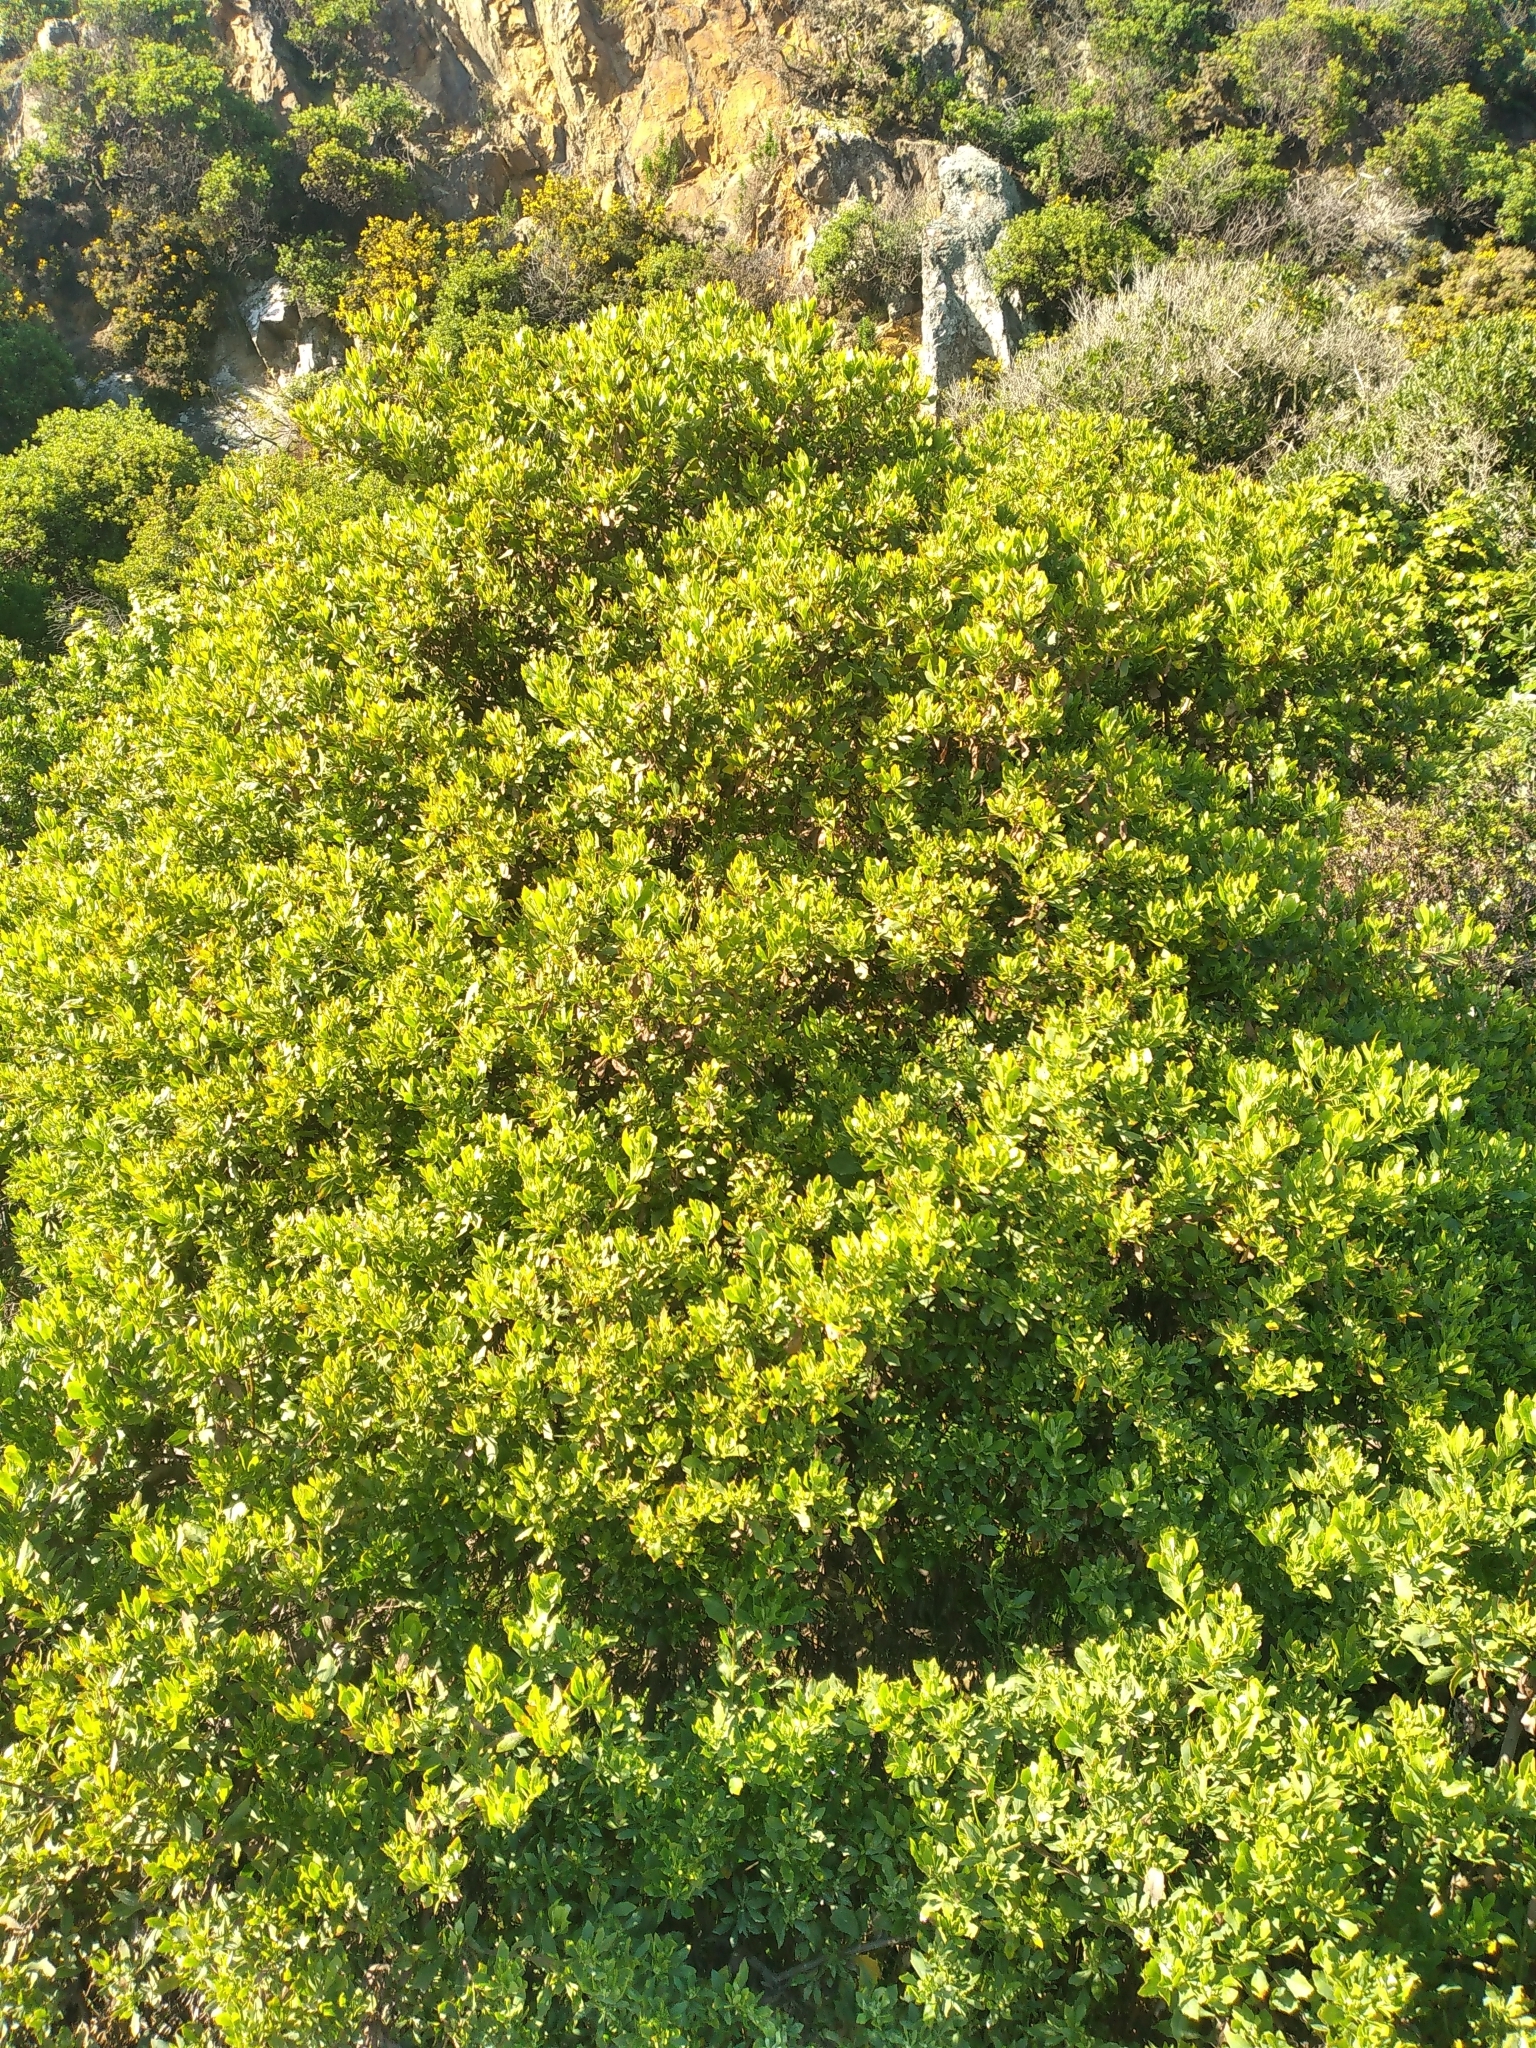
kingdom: Plantae
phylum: Tracheophyta
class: Magnoliopsida
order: Asterales
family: Asteraceae
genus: Osteospermum
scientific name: Osteospermum moniliferum
